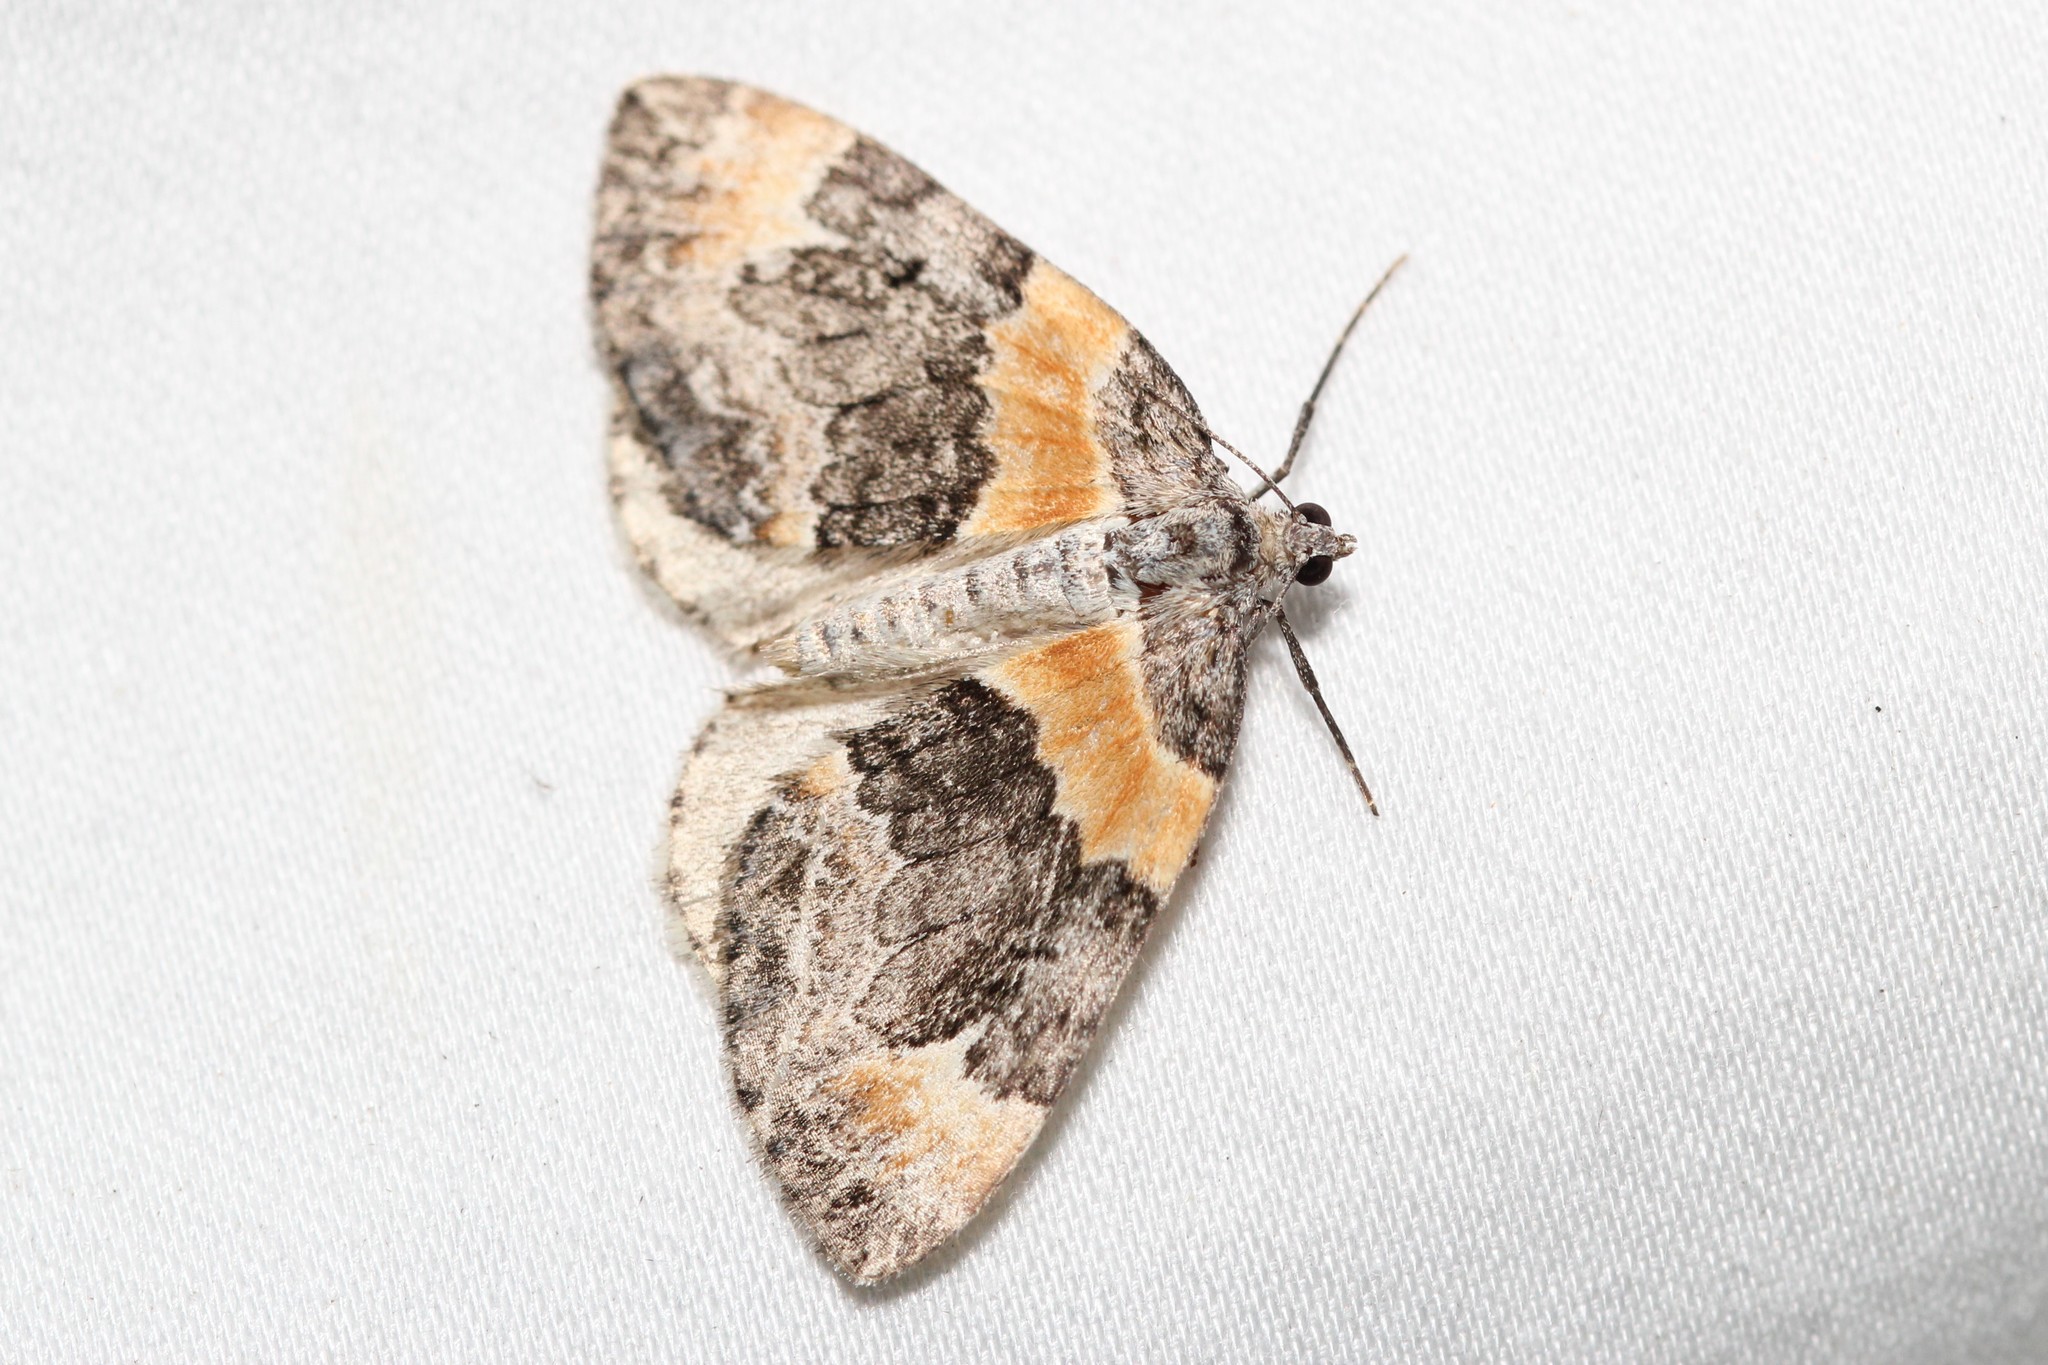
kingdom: Animalia
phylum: Arthropoda
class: Insecta
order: Lepidoptera
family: Geometridae
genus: Dysstroma
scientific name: Dysstroma hersiliata
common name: Orange-barred carpet
